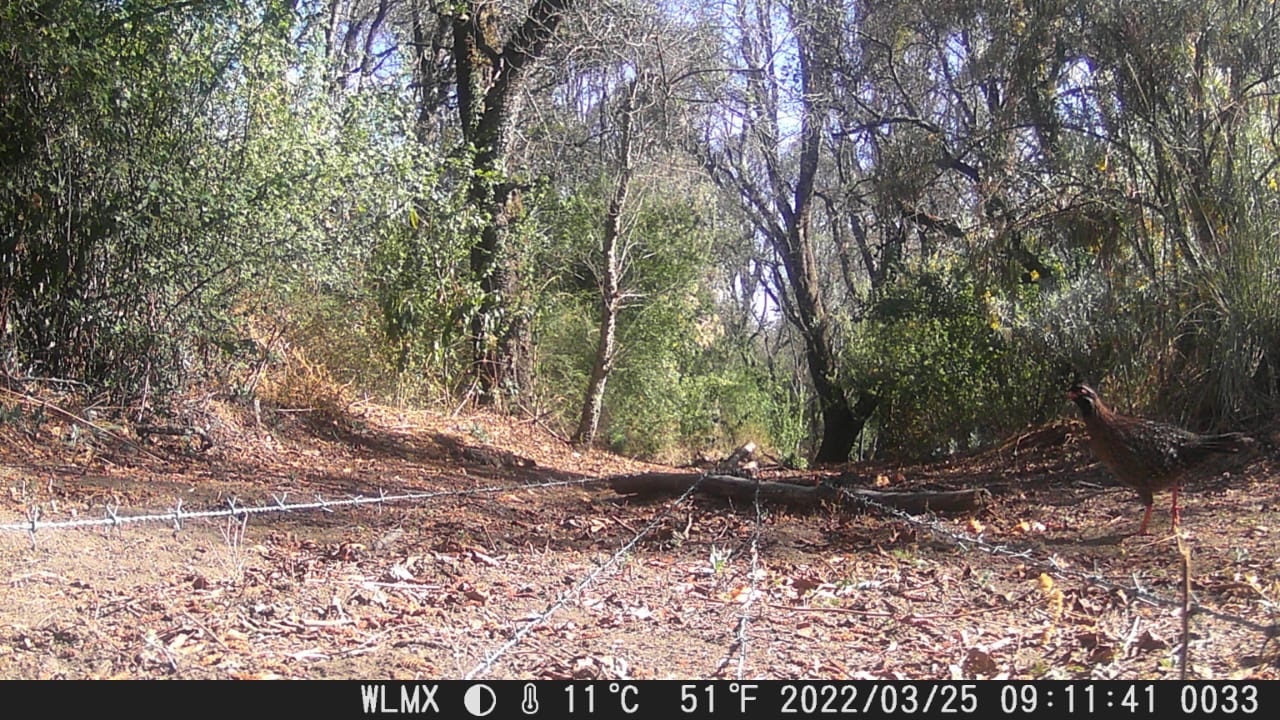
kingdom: Animalia
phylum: Chordata
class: Aves
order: Galliformes
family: Odontophoridae
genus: Dendrortyx
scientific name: Dendrortyx macroura
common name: Long-tailed wood-partridge
